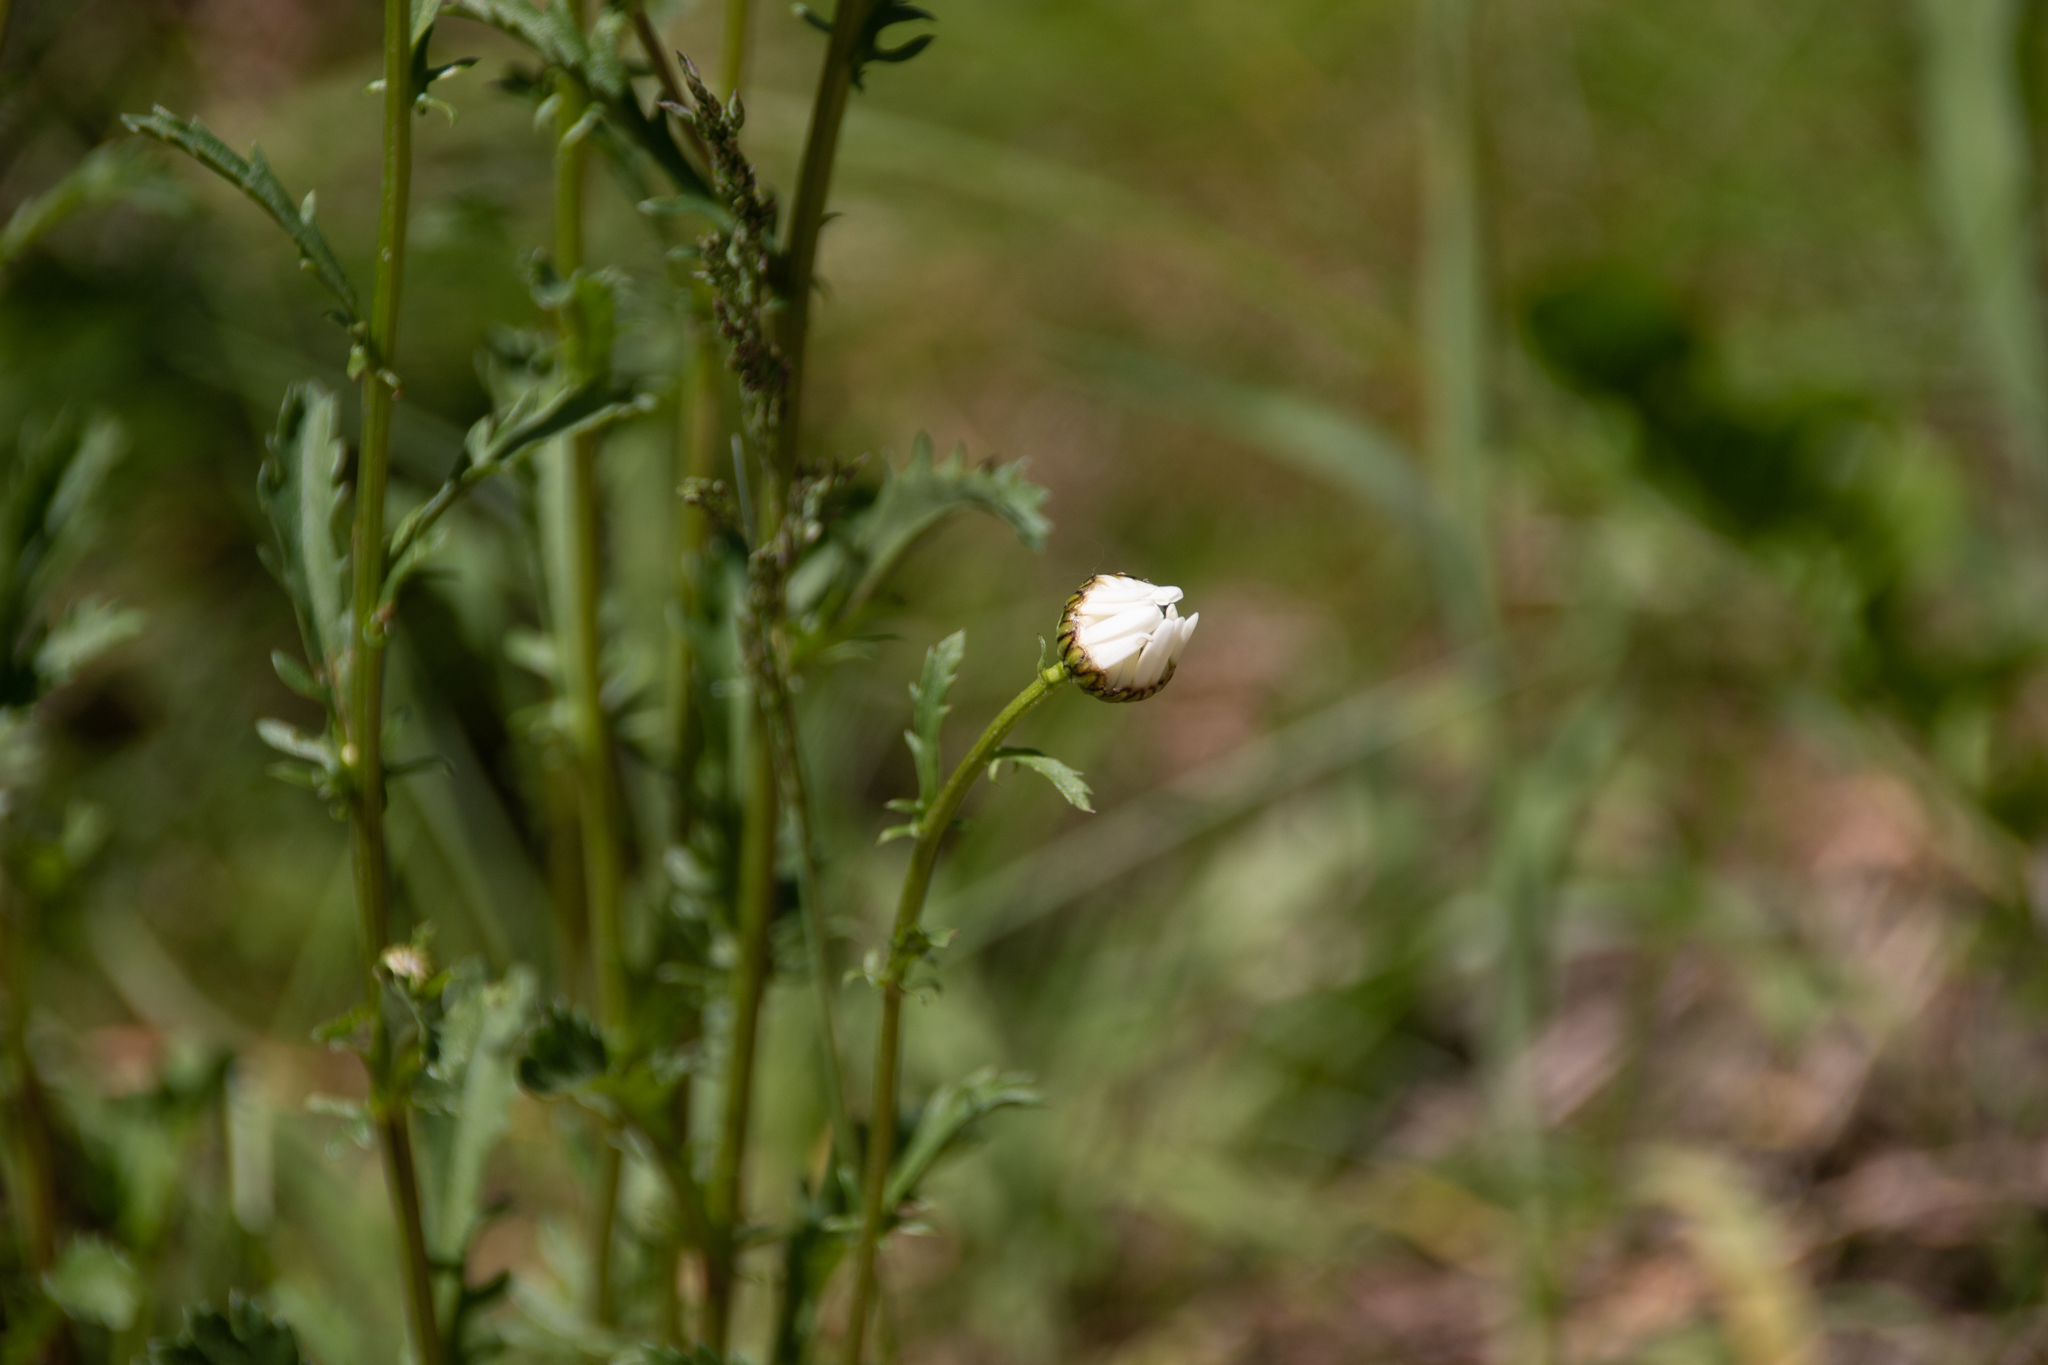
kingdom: Plantae
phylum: Tracheophyta
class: Magnoliopsida
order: Asterales
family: Asteraceae
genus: Leucanthemum
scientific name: Leucanthemum vulgare
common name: Oxeye daisy
